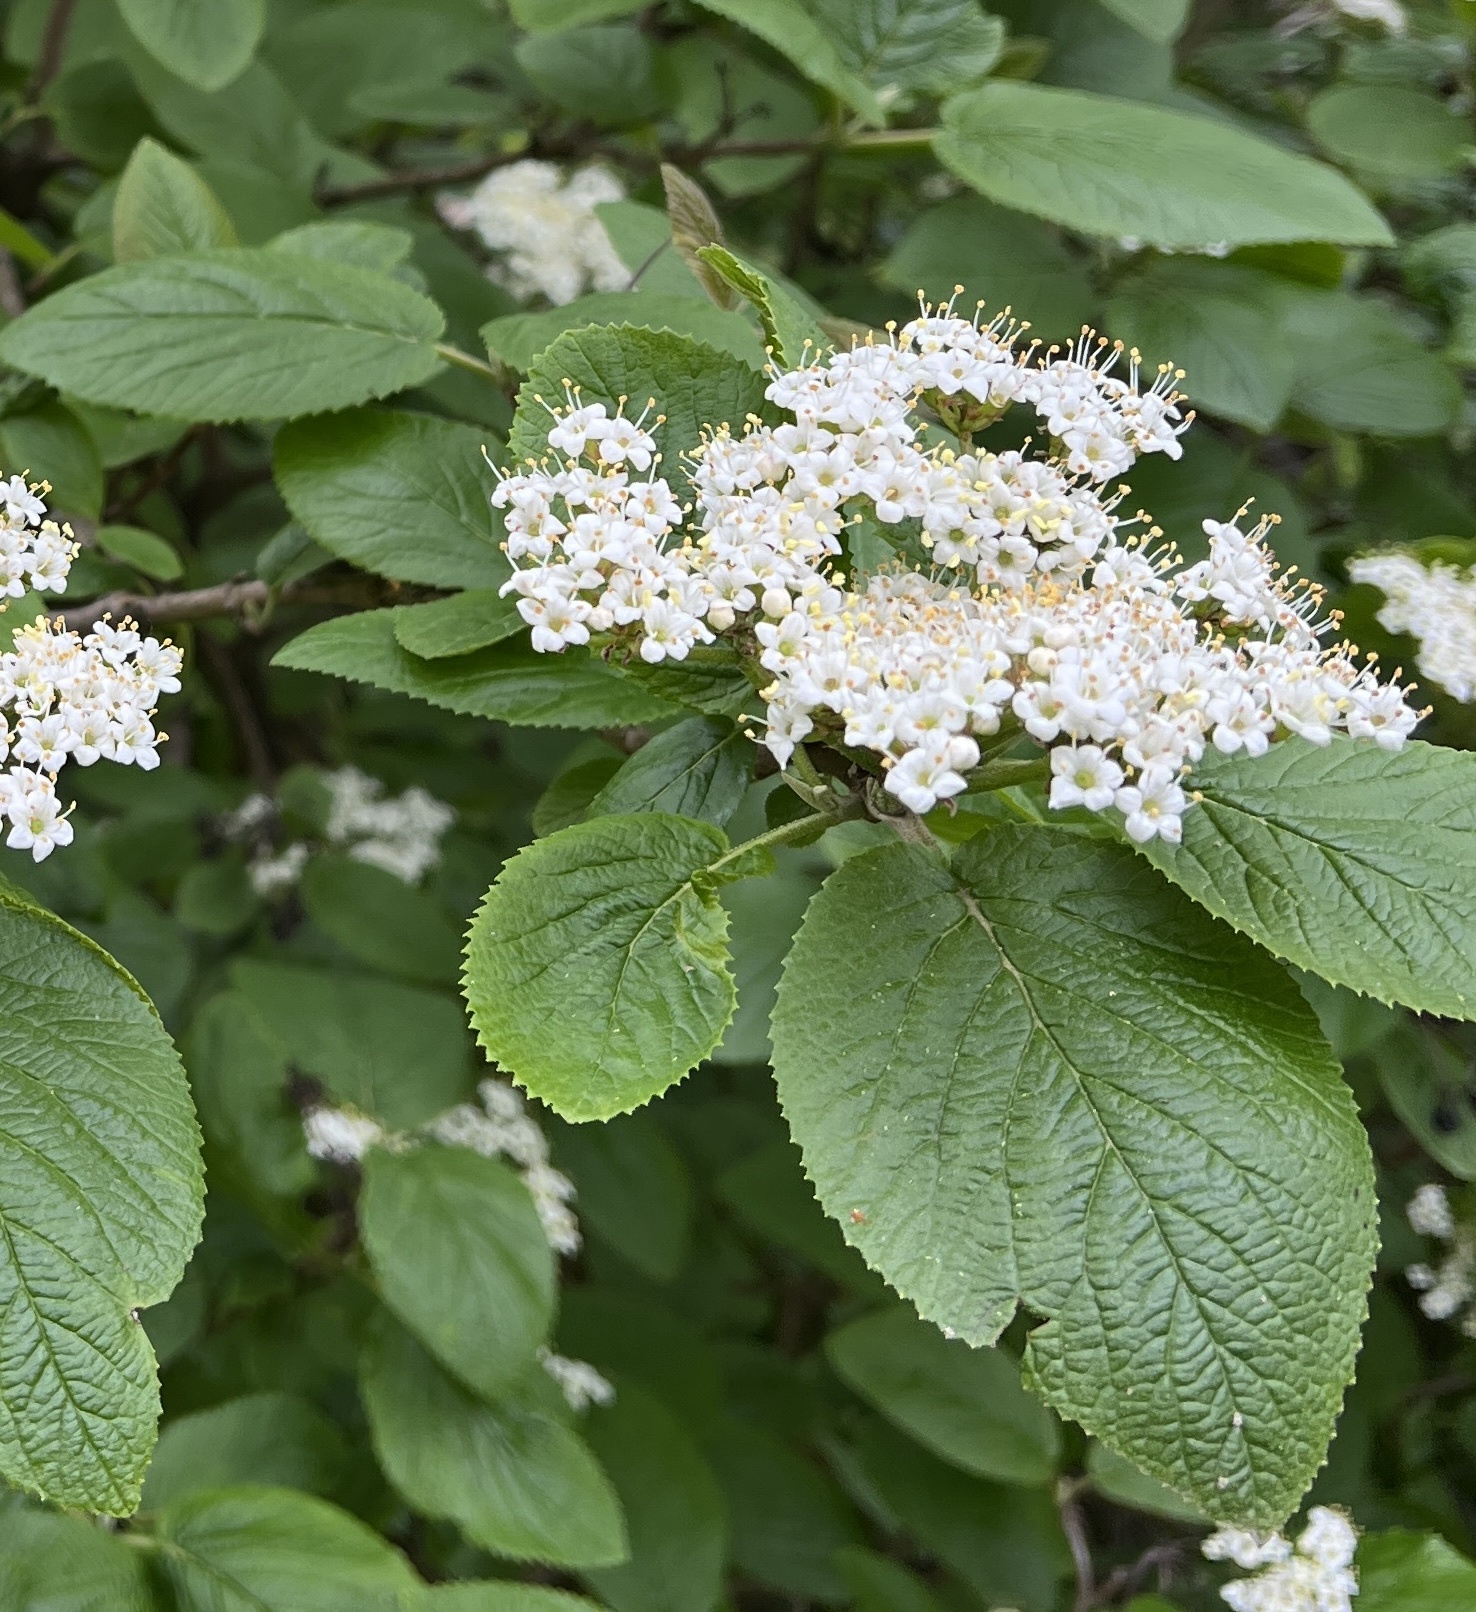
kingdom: Plantae
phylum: Tracheophyta
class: Magnoliopsida
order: Dipsacales
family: Viburnaceae
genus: Viburnum
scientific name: Viburnum lantana
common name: Wayfaring tree
